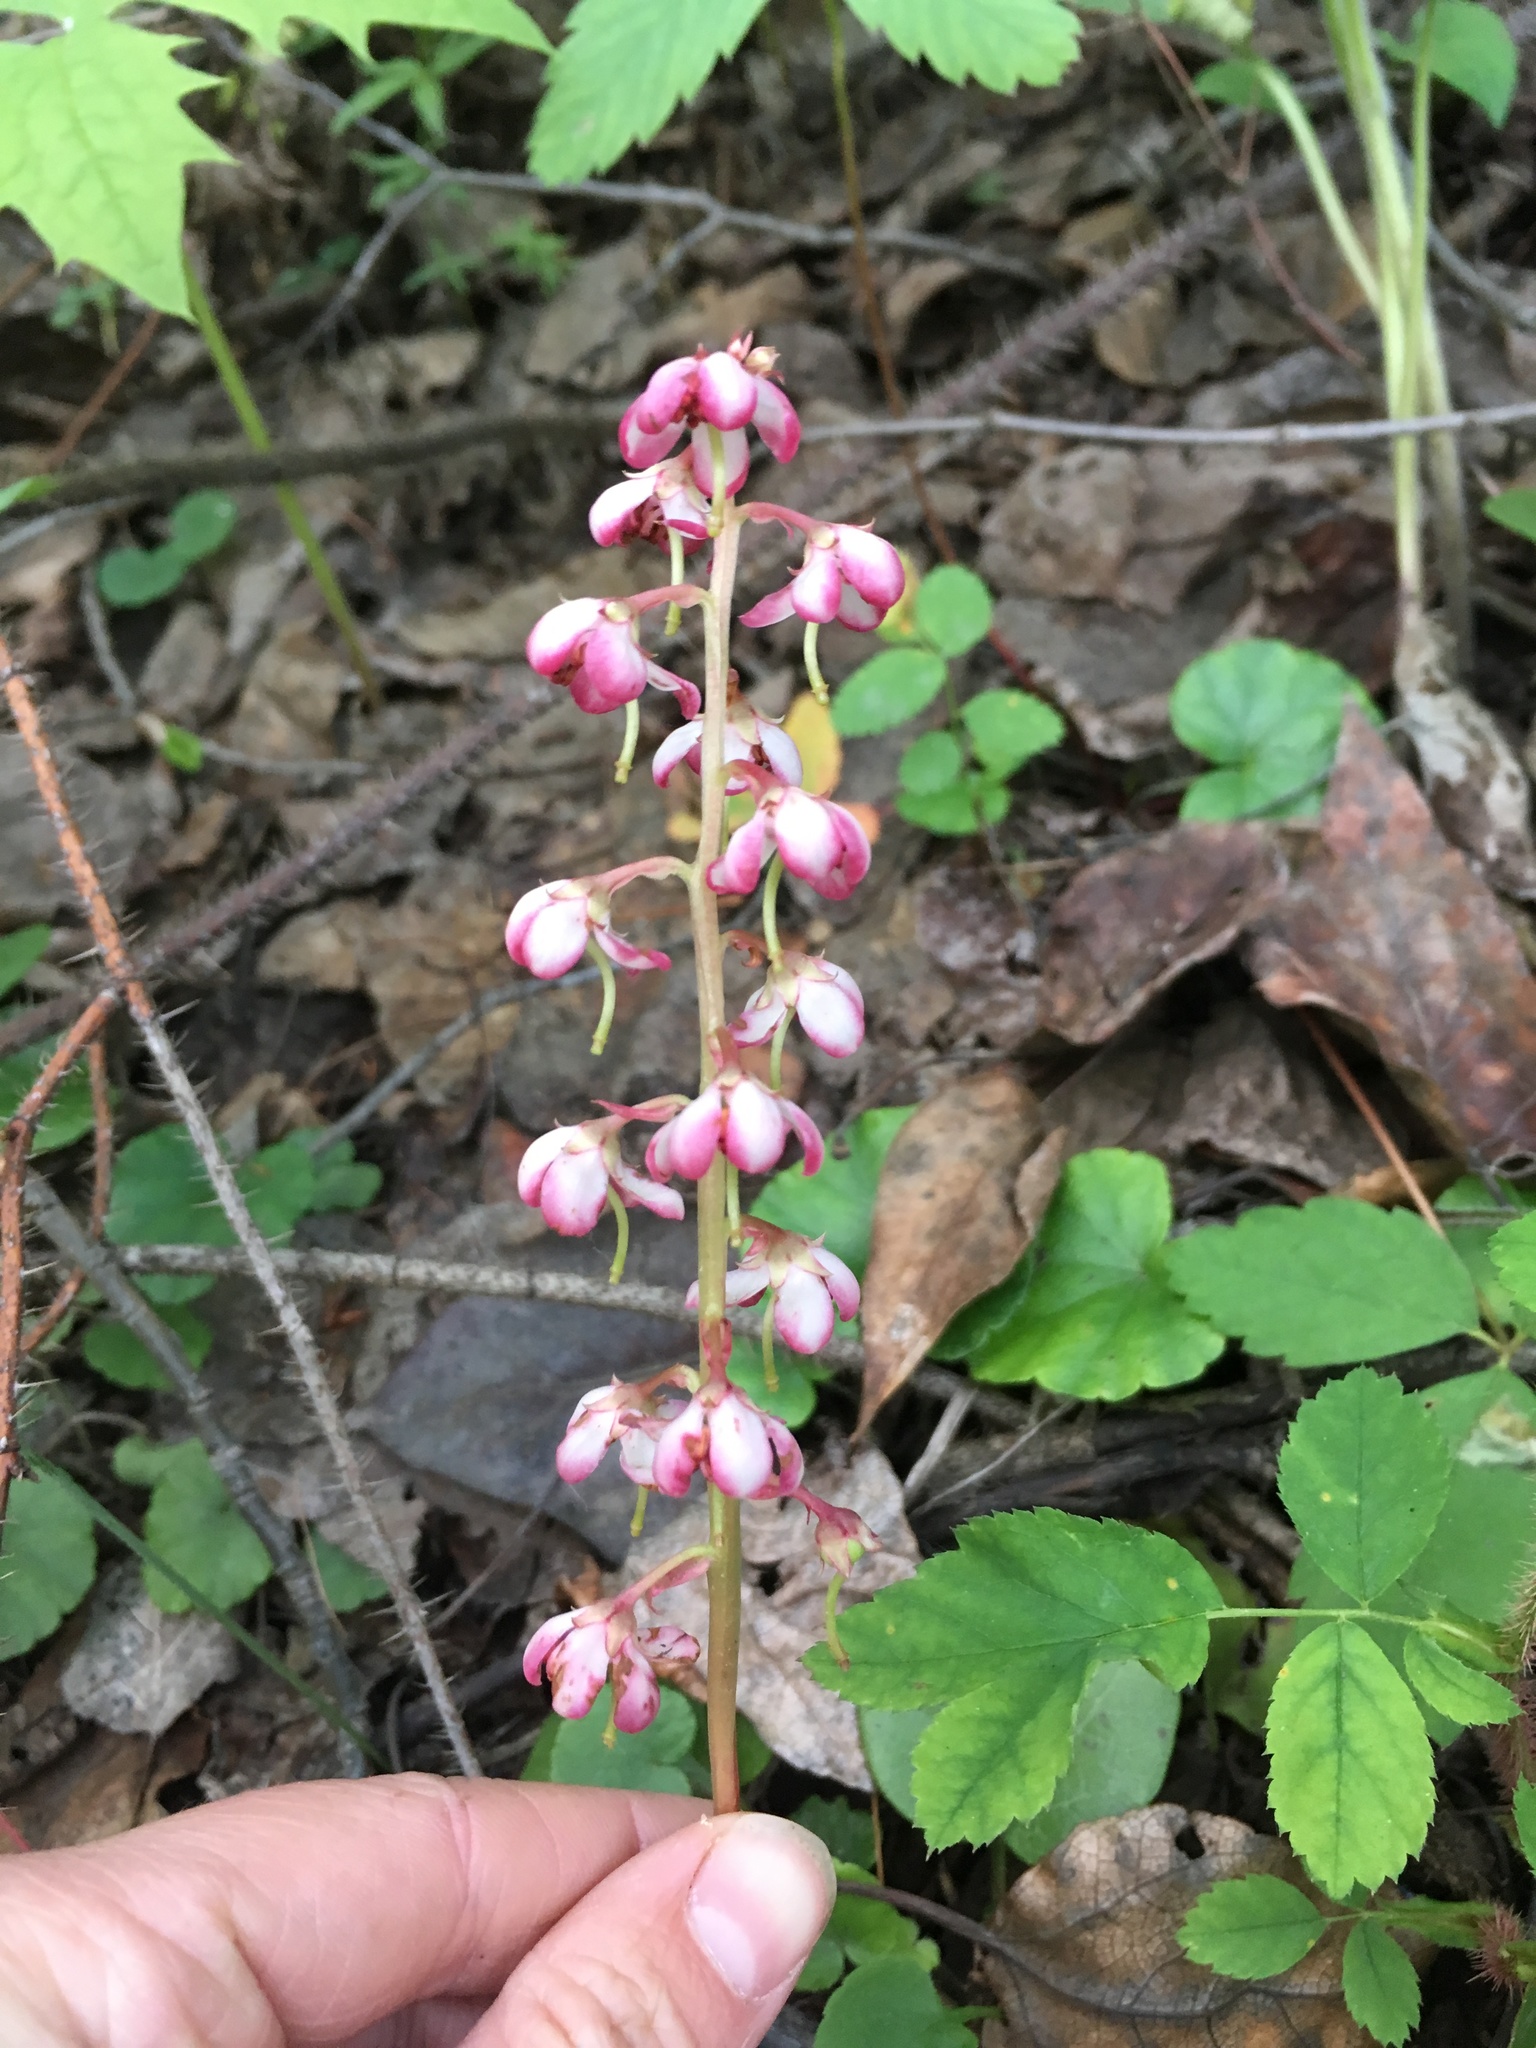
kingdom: Plantae
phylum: Tracheophyta
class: Magnoliopsida
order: Ericales
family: Ericaceae
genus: Pyrola
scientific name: Pyrola asarifolia
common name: Bog wintergreen
